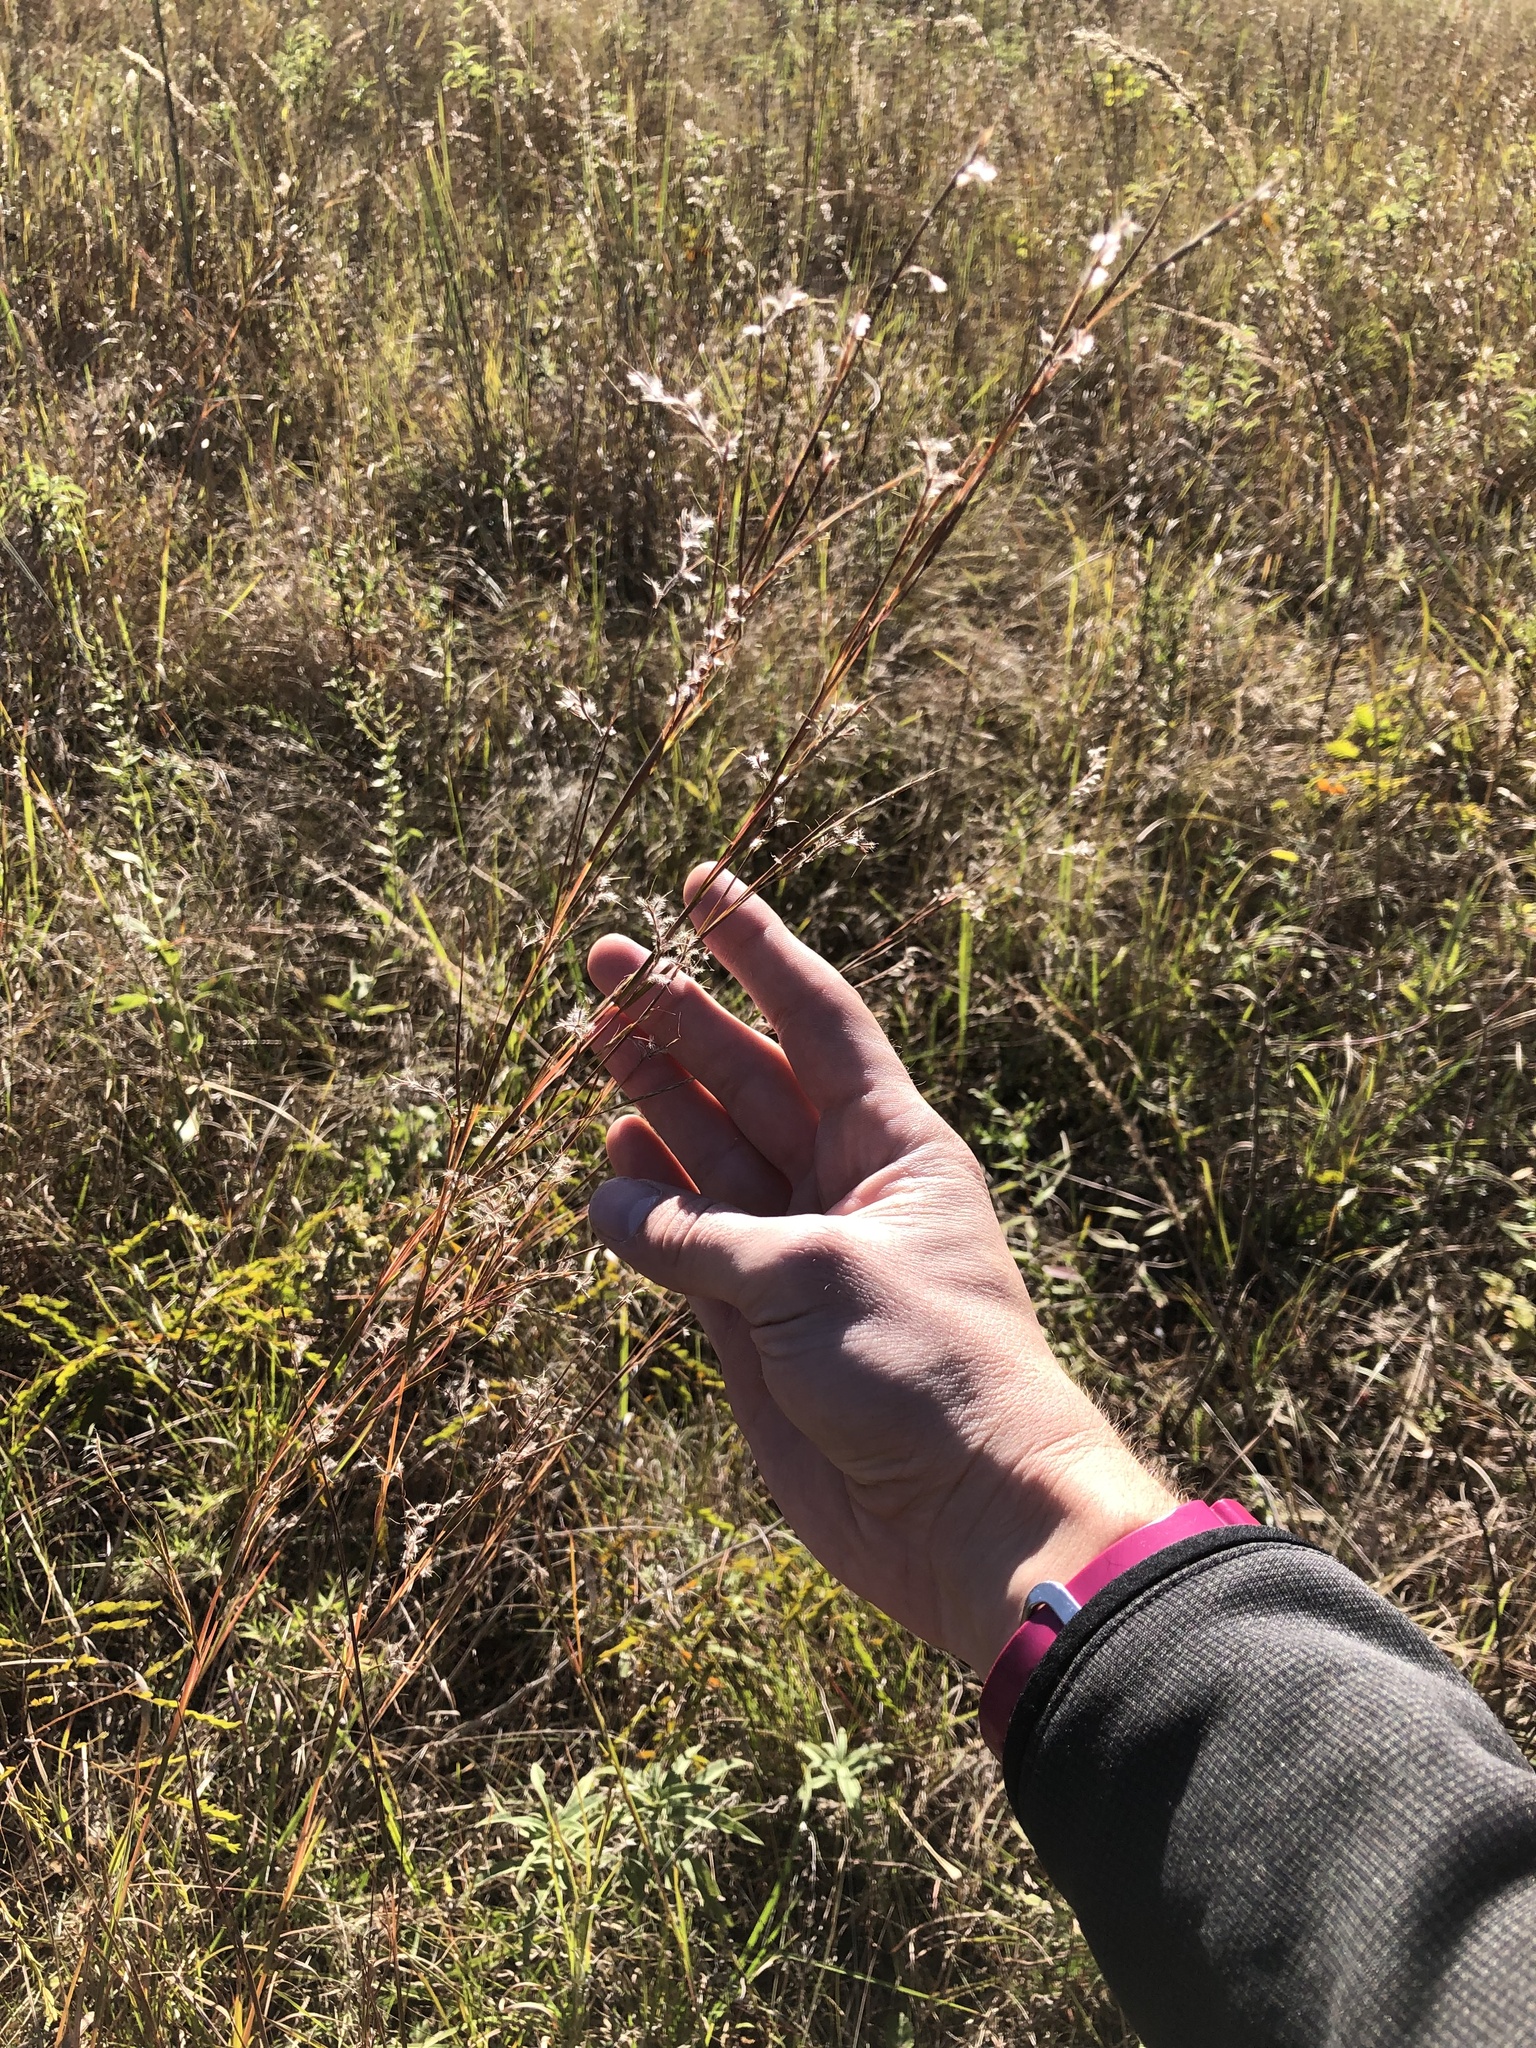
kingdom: Plantae
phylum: Tracheophyta
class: Liliopsida
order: Poales
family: Poaceae
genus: Schizachyrium
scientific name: Schizachyrium scoparium
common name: Little bluestem
